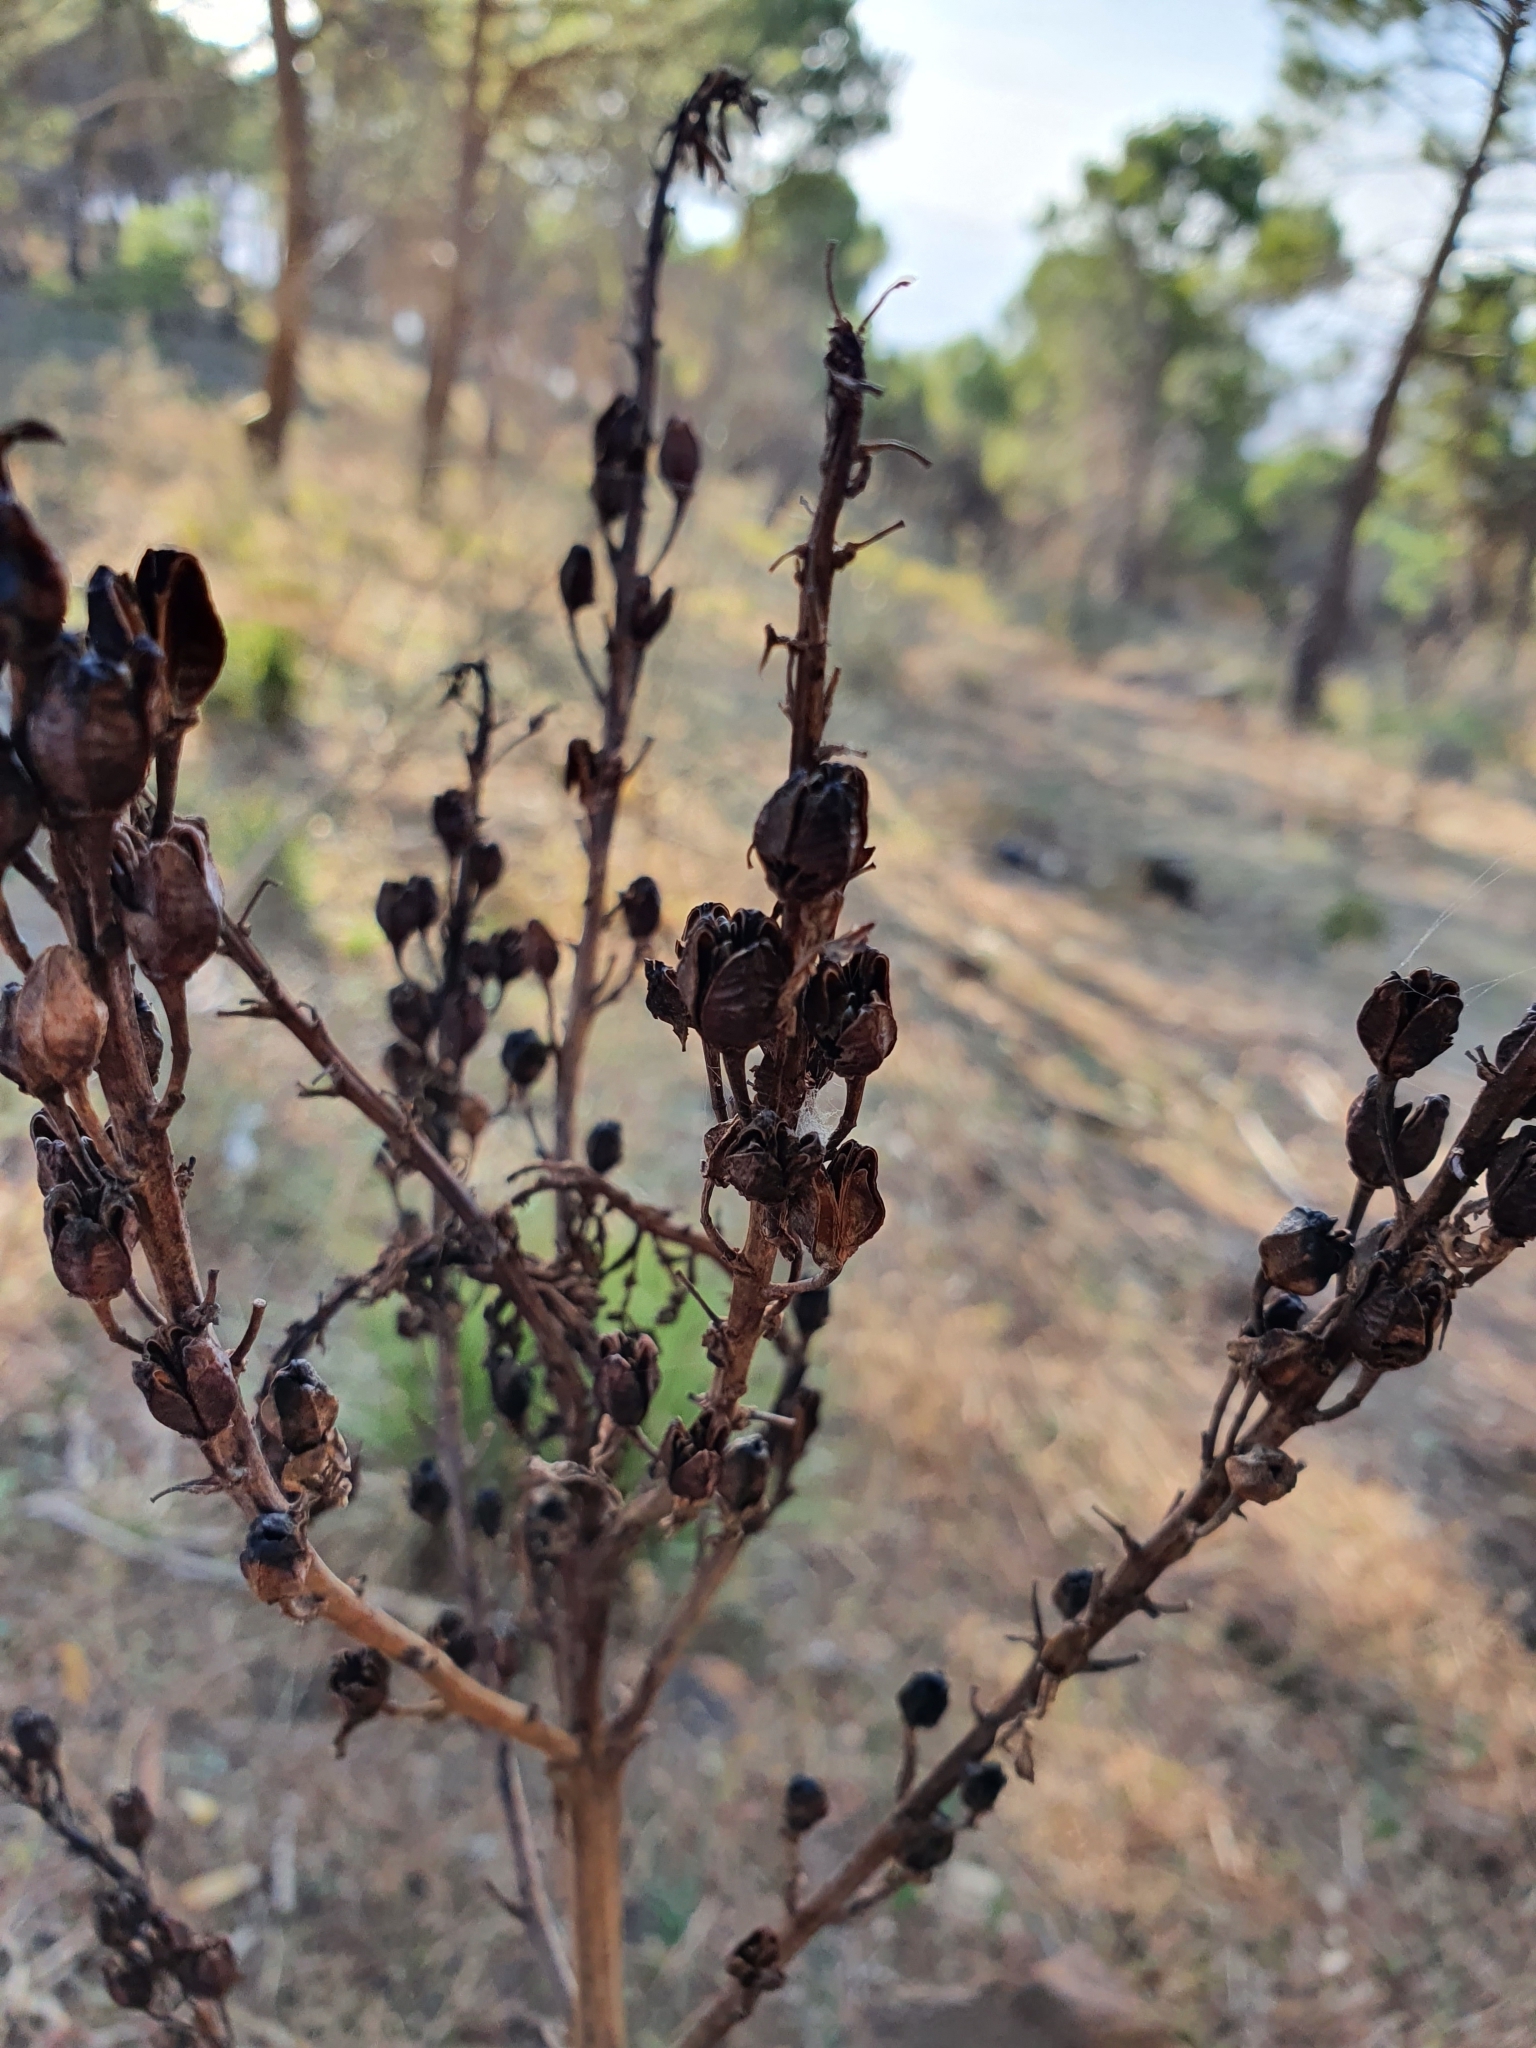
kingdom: Plantae
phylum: Tracheophyta
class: Liliopsida
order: Asparagales
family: Asphodelaceae
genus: Asphodelus
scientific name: Asphodelus ramosus
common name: Silverrod
